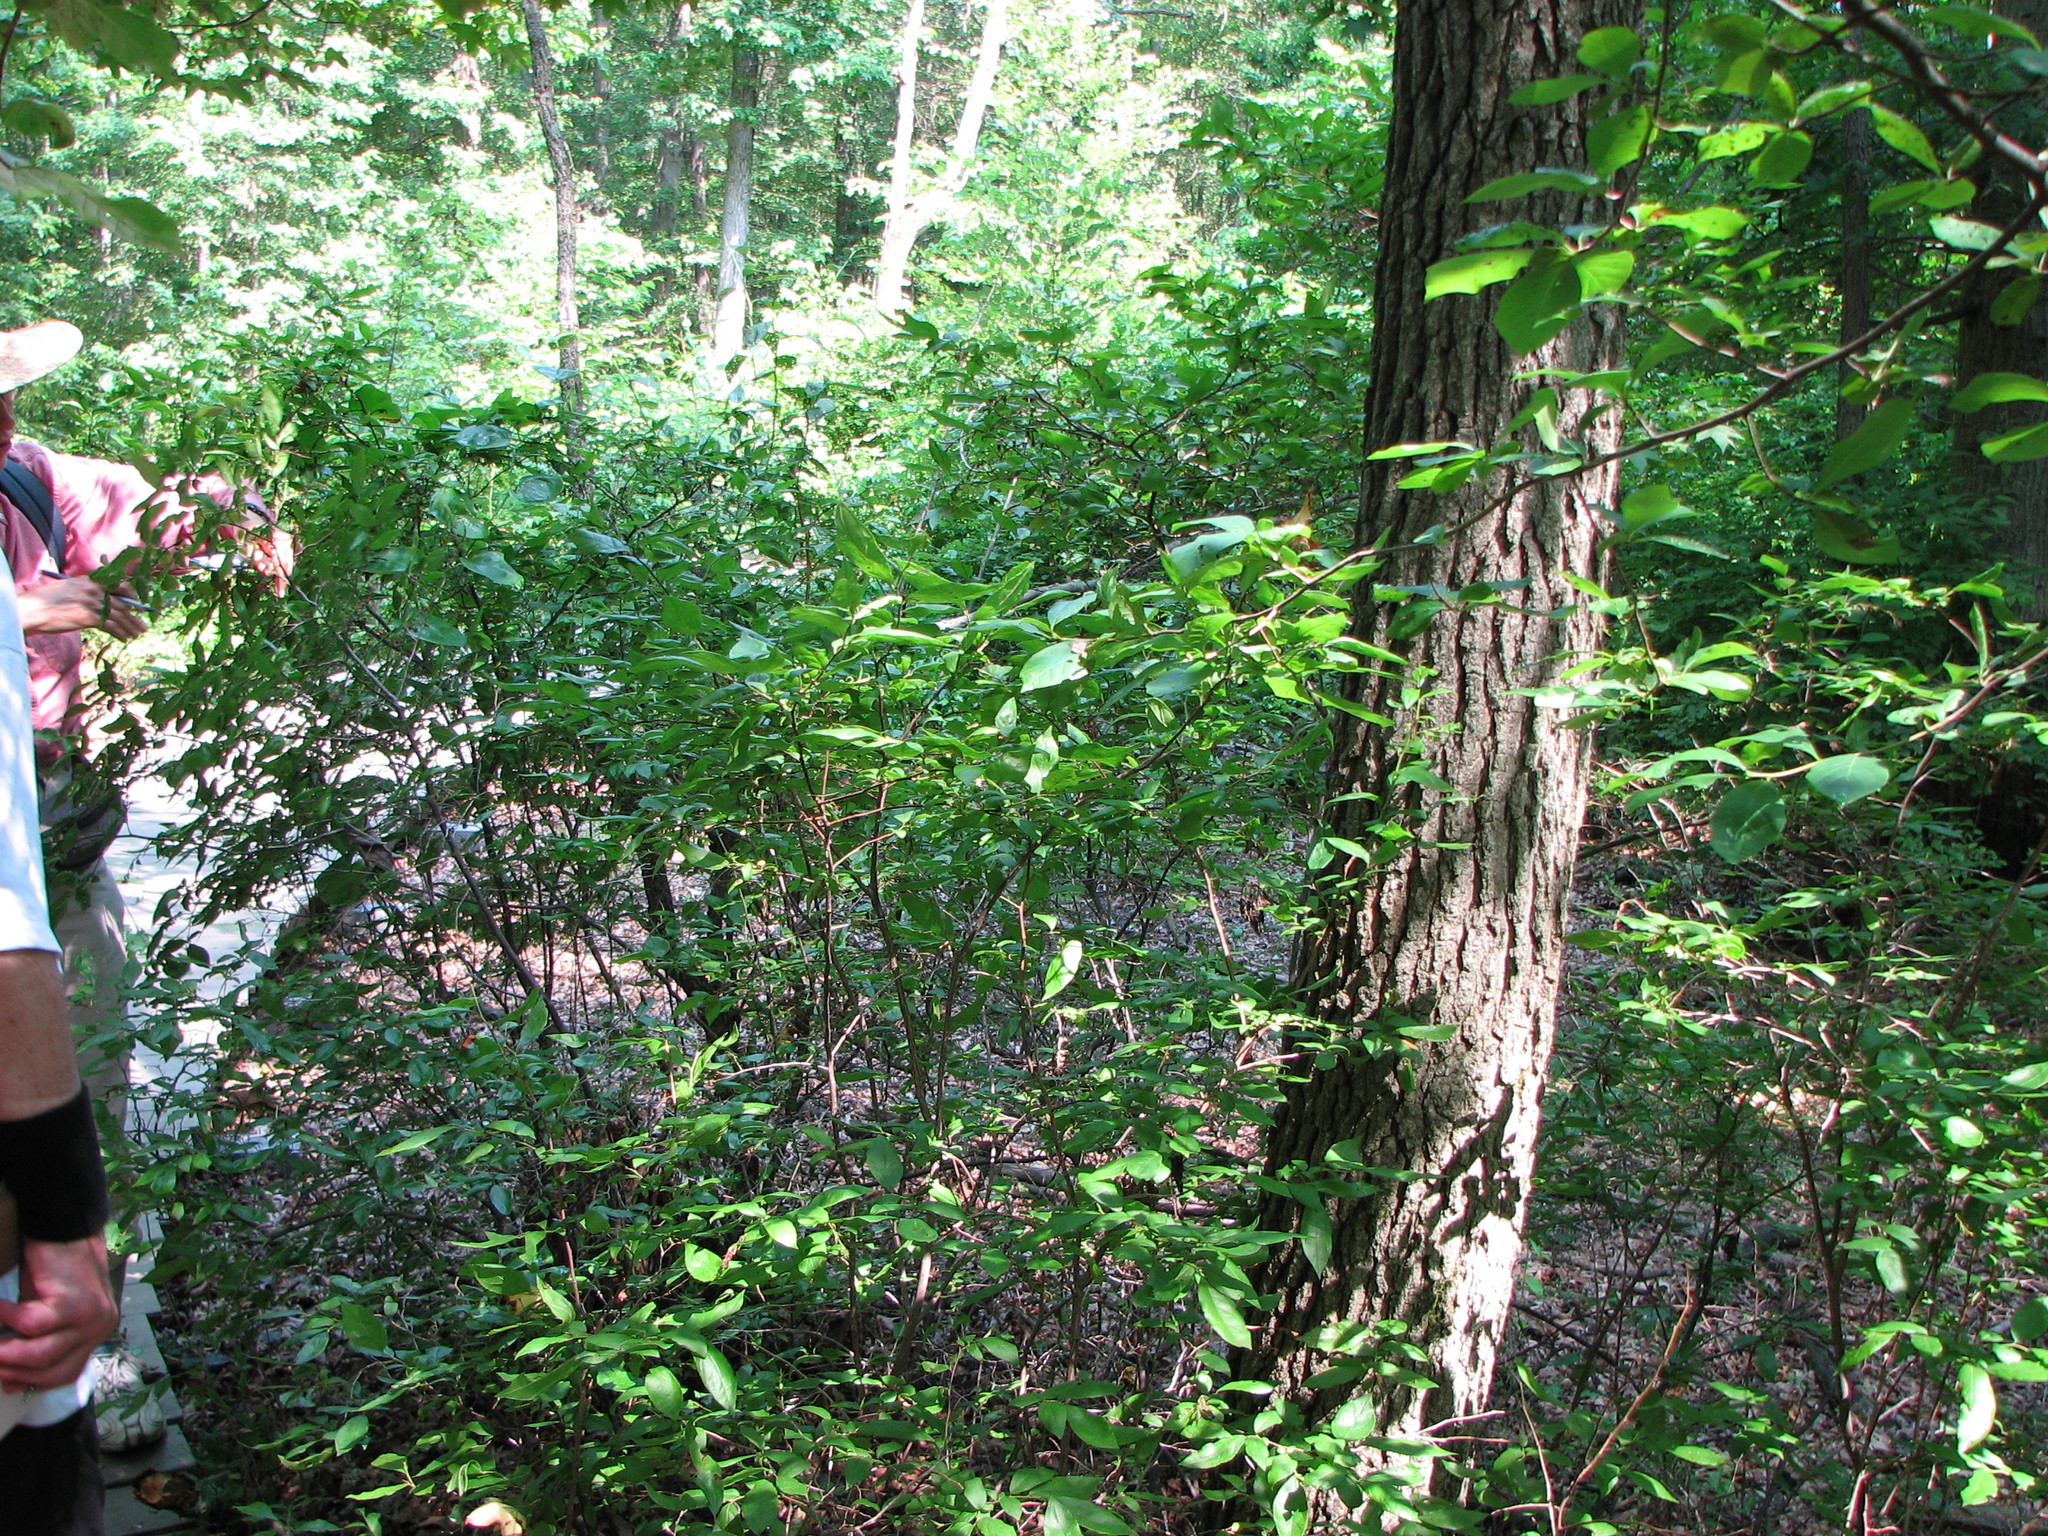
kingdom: Plantae
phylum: Tracheophyta
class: Magnoliopsida
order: Ericales
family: Ericaceae
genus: Eubotrys
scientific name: Eubotrys racemosa
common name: Fetterbush
